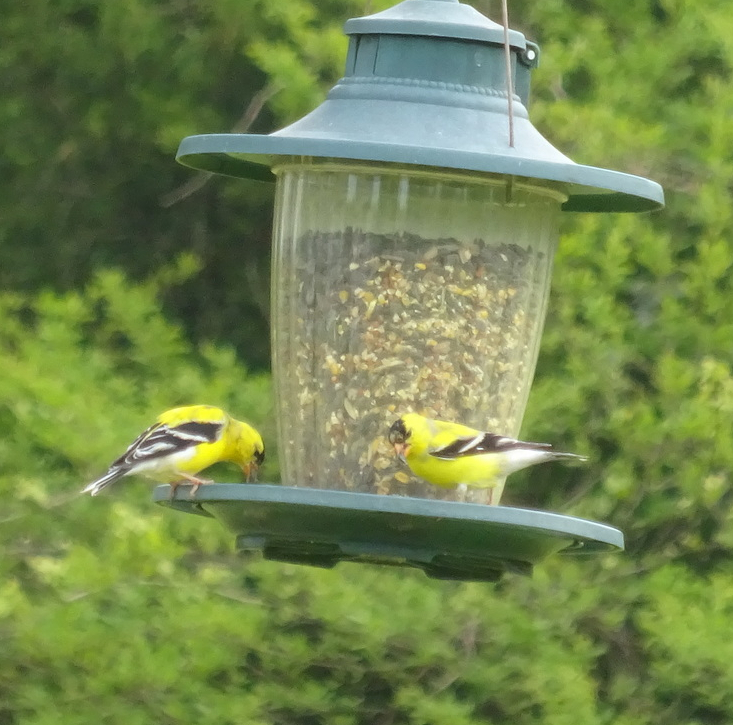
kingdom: Animalia
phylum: Chordata
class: Aves
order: Passeriformes
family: Fringillidae
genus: Spinus
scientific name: Spinus tristis
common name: American goldfinch
